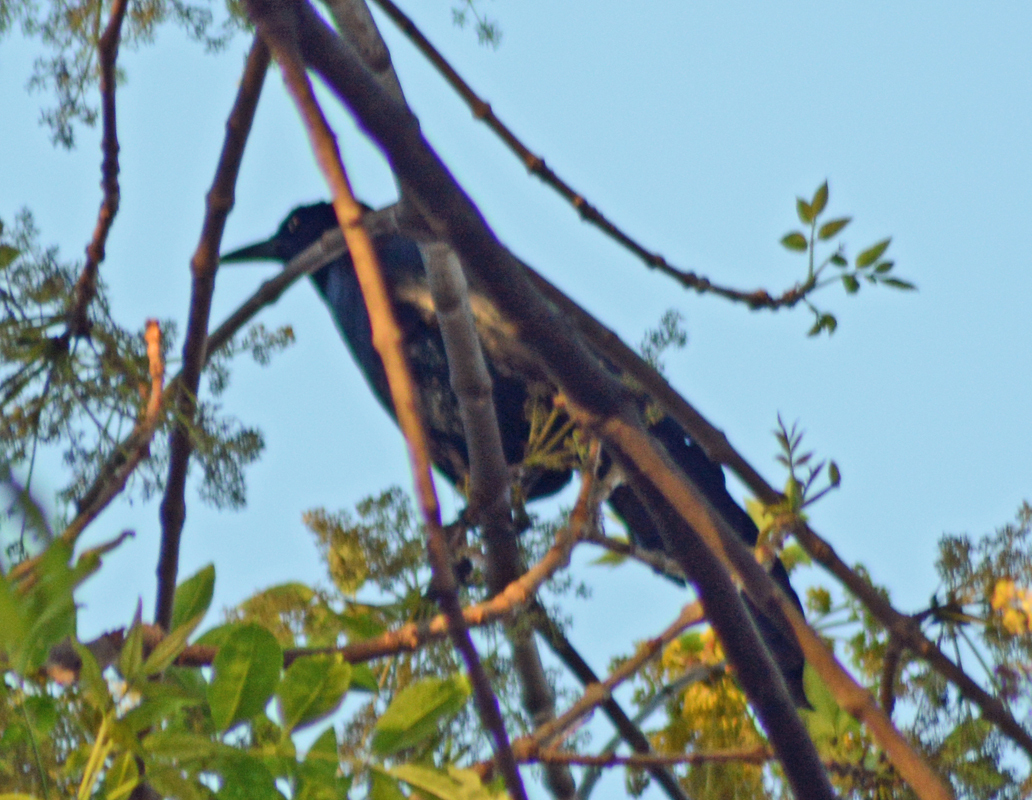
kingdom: Animalia
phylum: Chordata
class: Aves
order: Passeriformes
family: Icteridae
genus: Quiscalus
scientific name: Quiscalus mexicanus
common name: Great-tailed grackle
